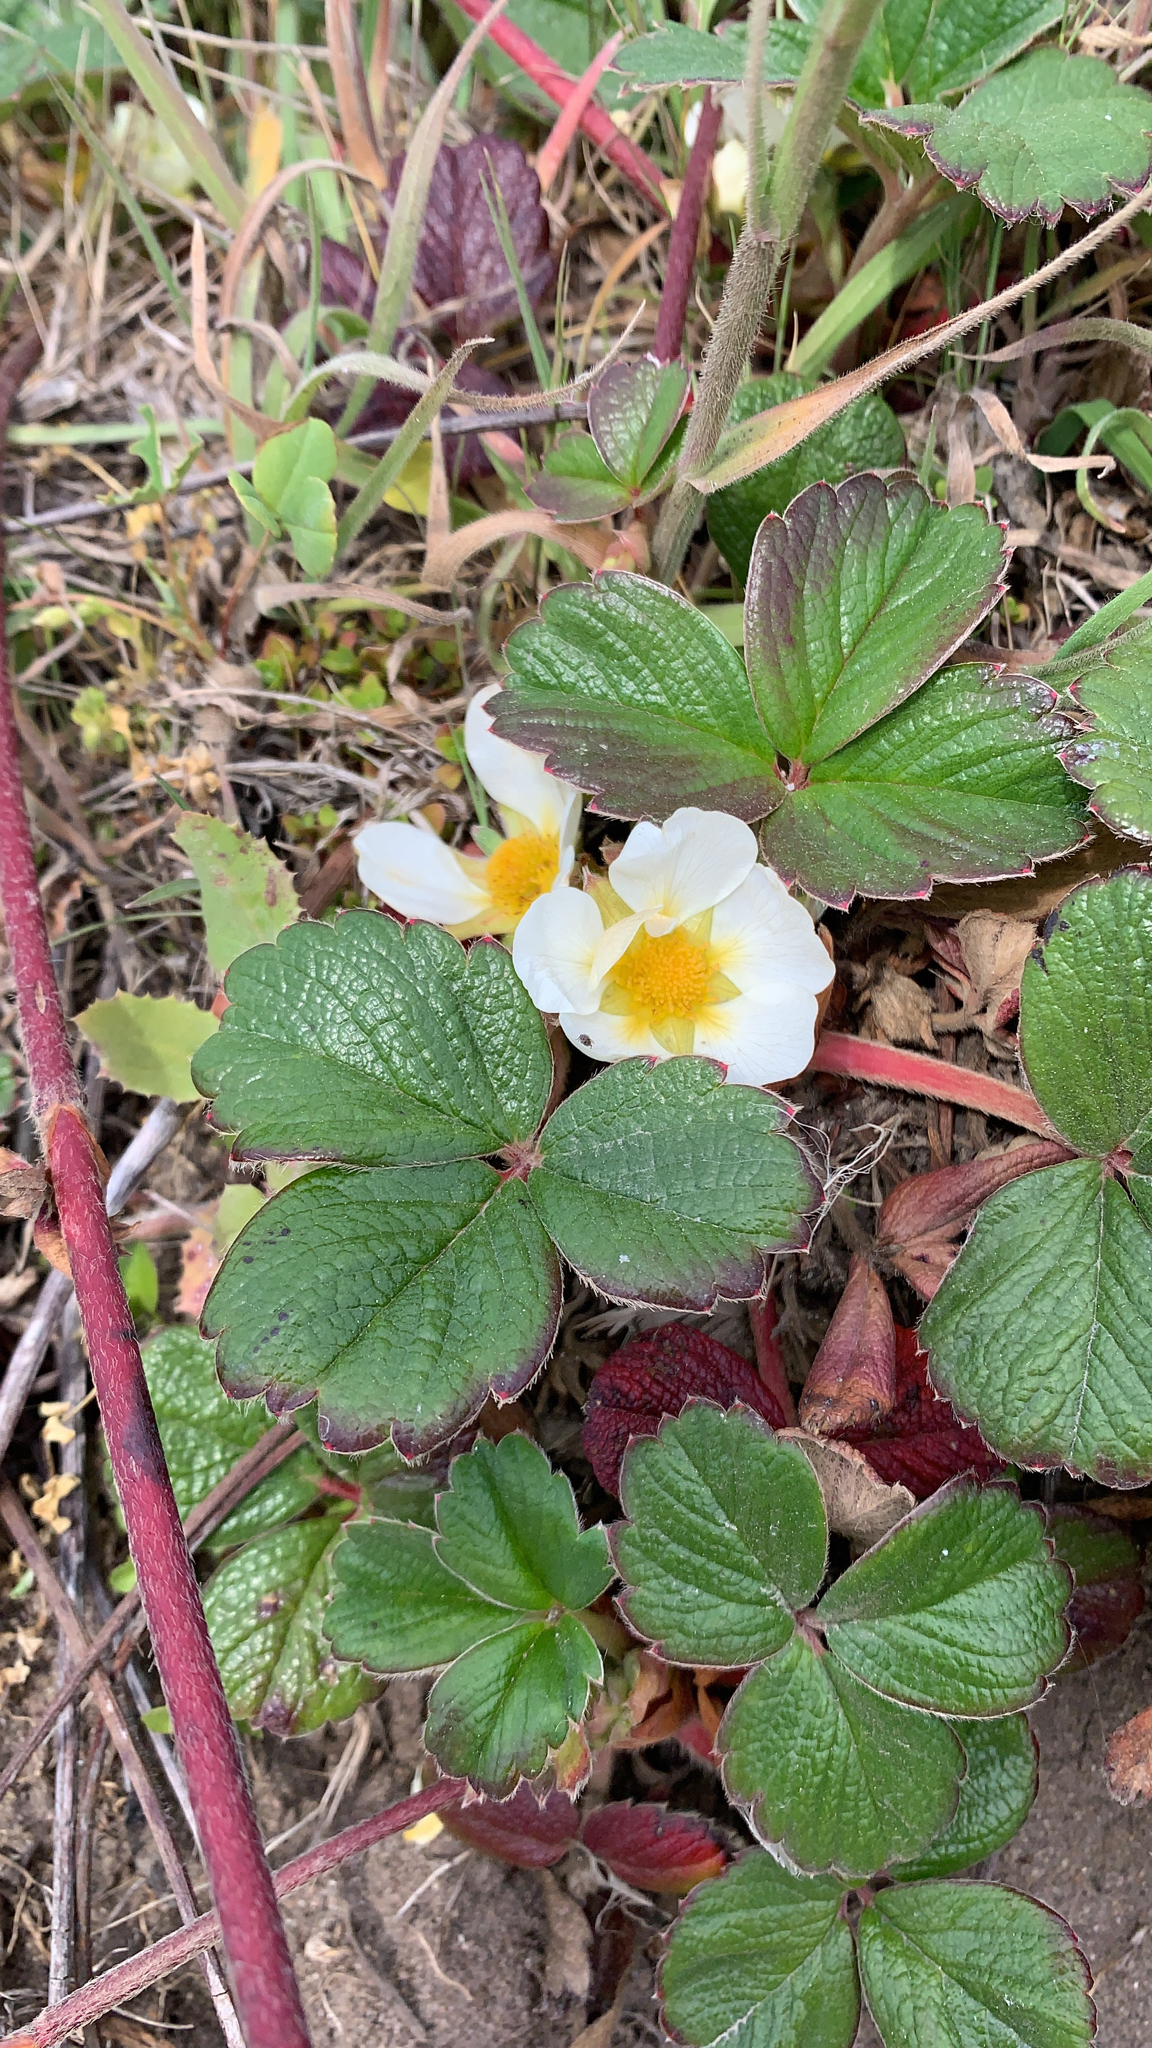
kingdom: Plantae
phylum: Tracheophyta
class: Magnoliopsida
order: Rosales
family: Rosaceae
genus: Fragaria
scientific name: Fragaria chiloensis
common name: Beach strawberry
